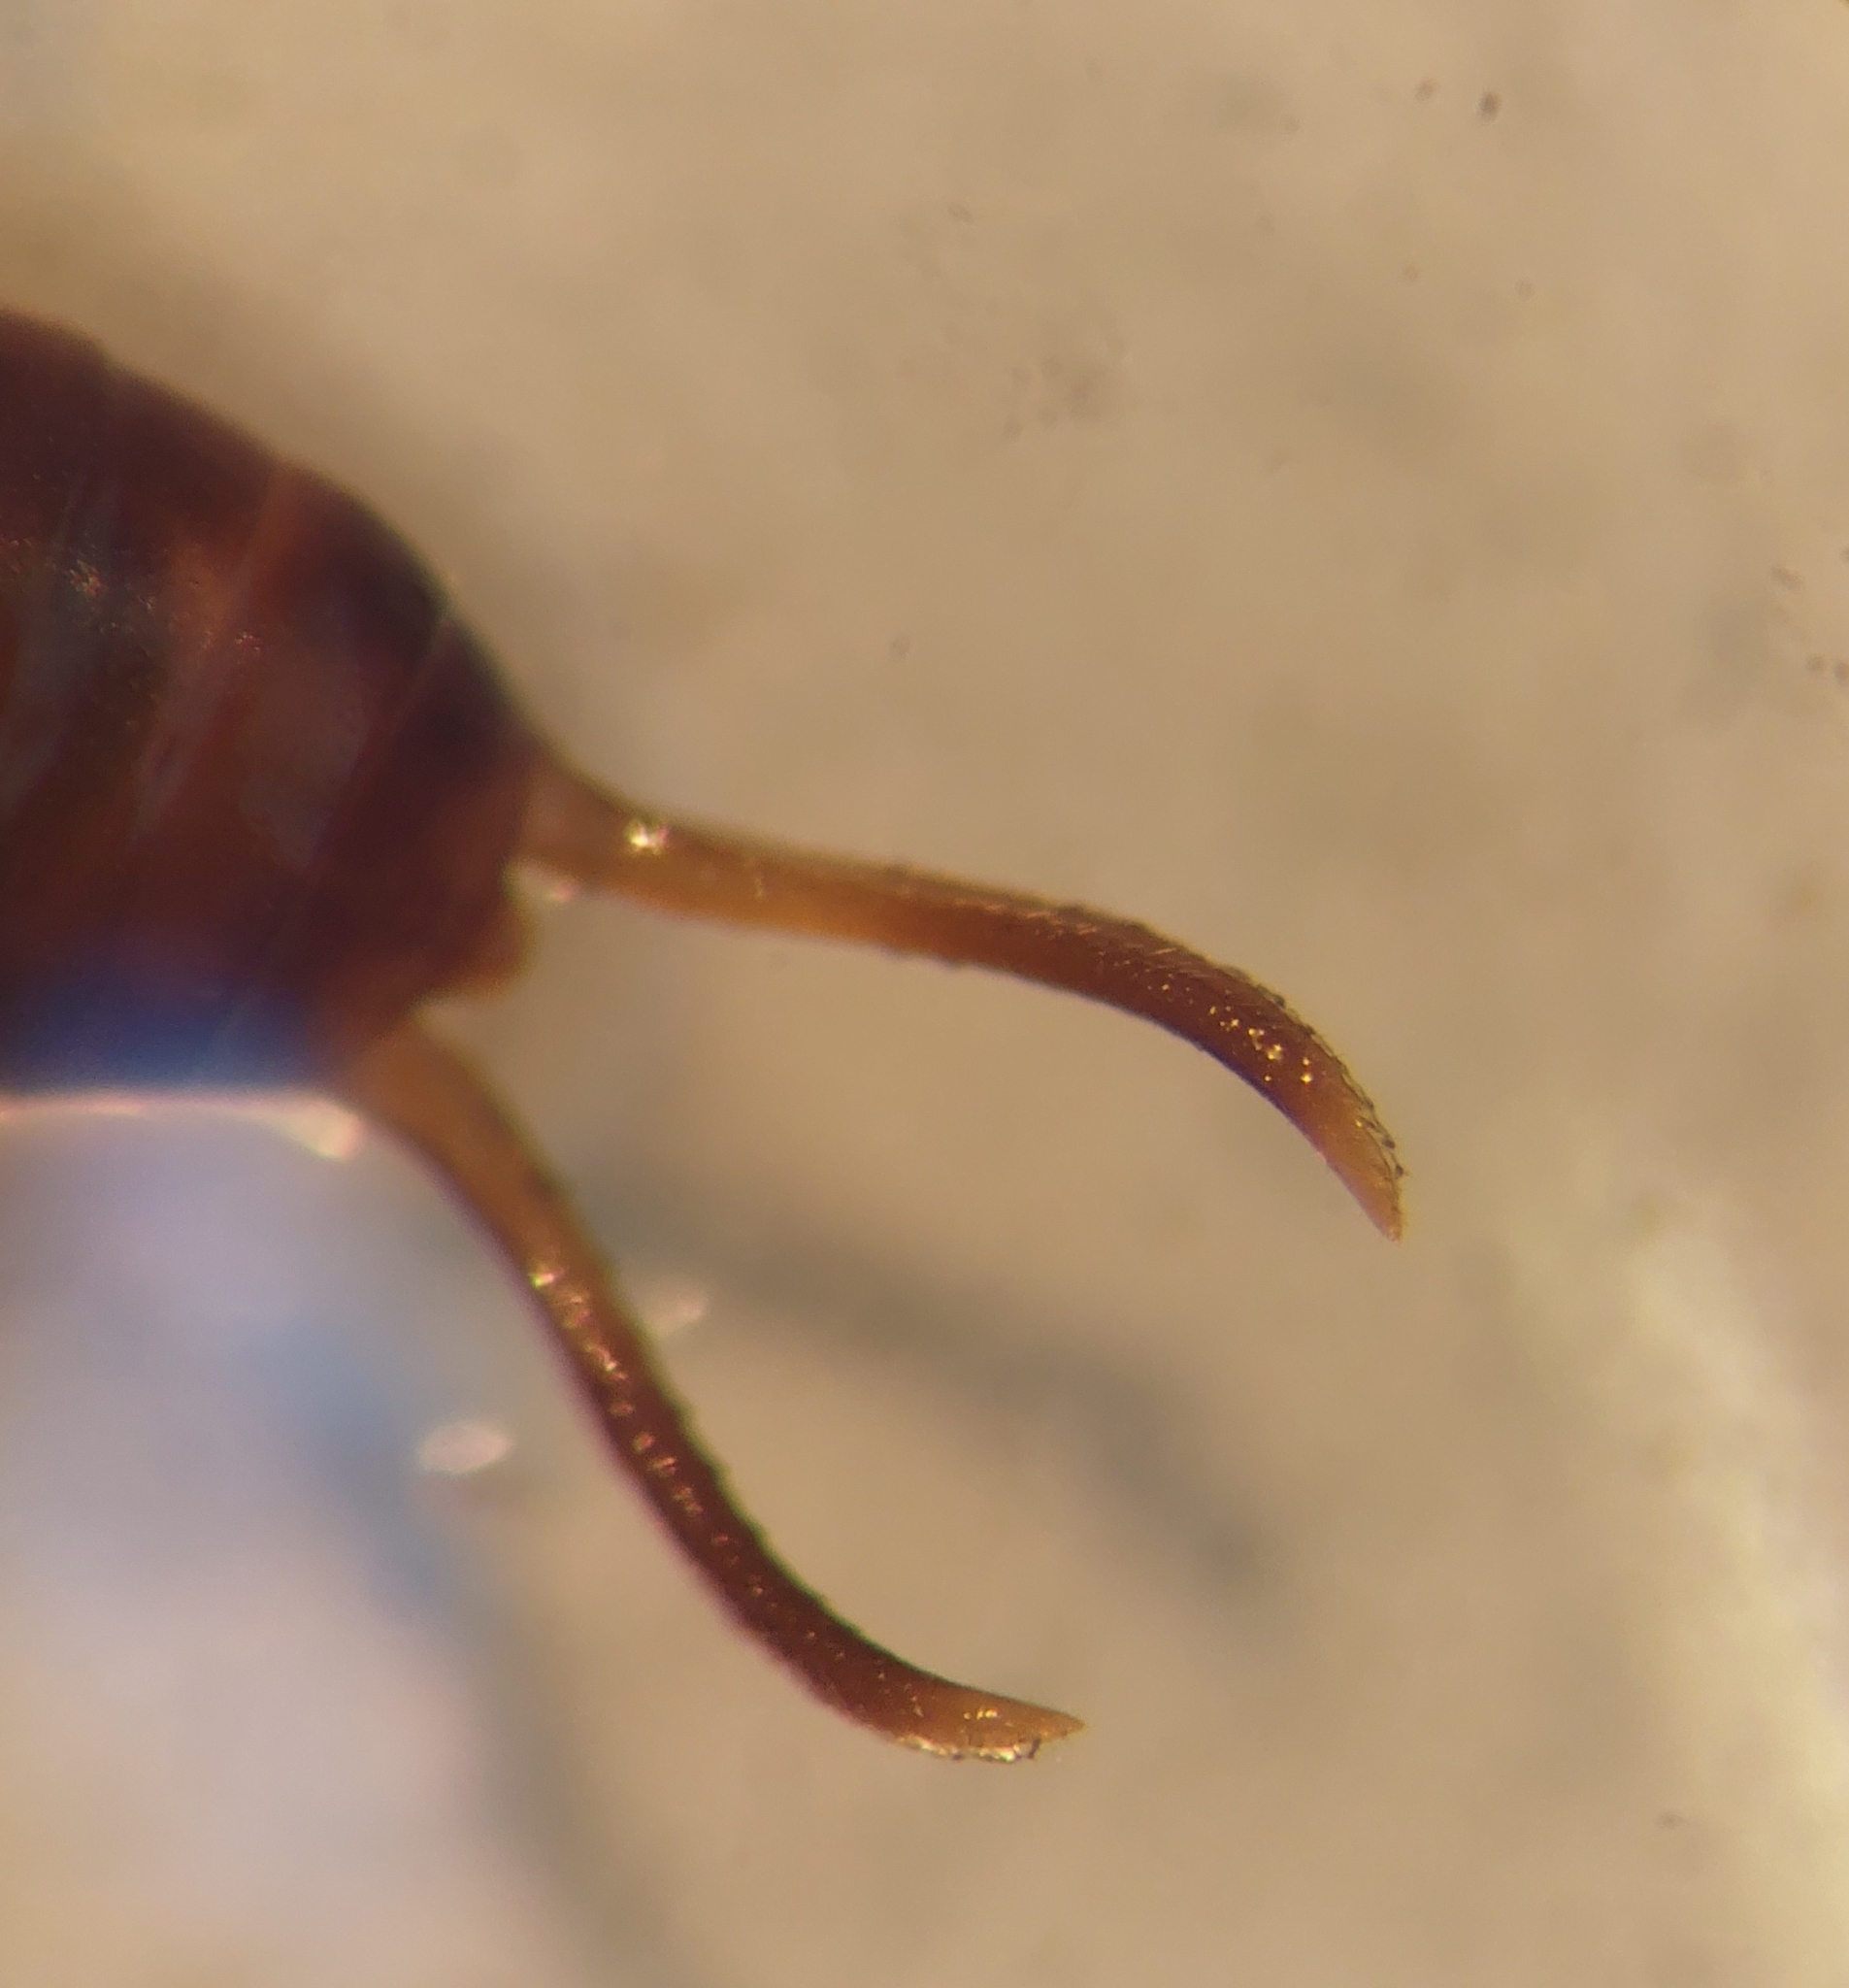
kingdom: Animalia
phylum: Arthropoda
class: Insecta
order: Dermaptera
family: Forficulidae
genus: Chelidurella
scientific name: Chelidurella acanthopygia
